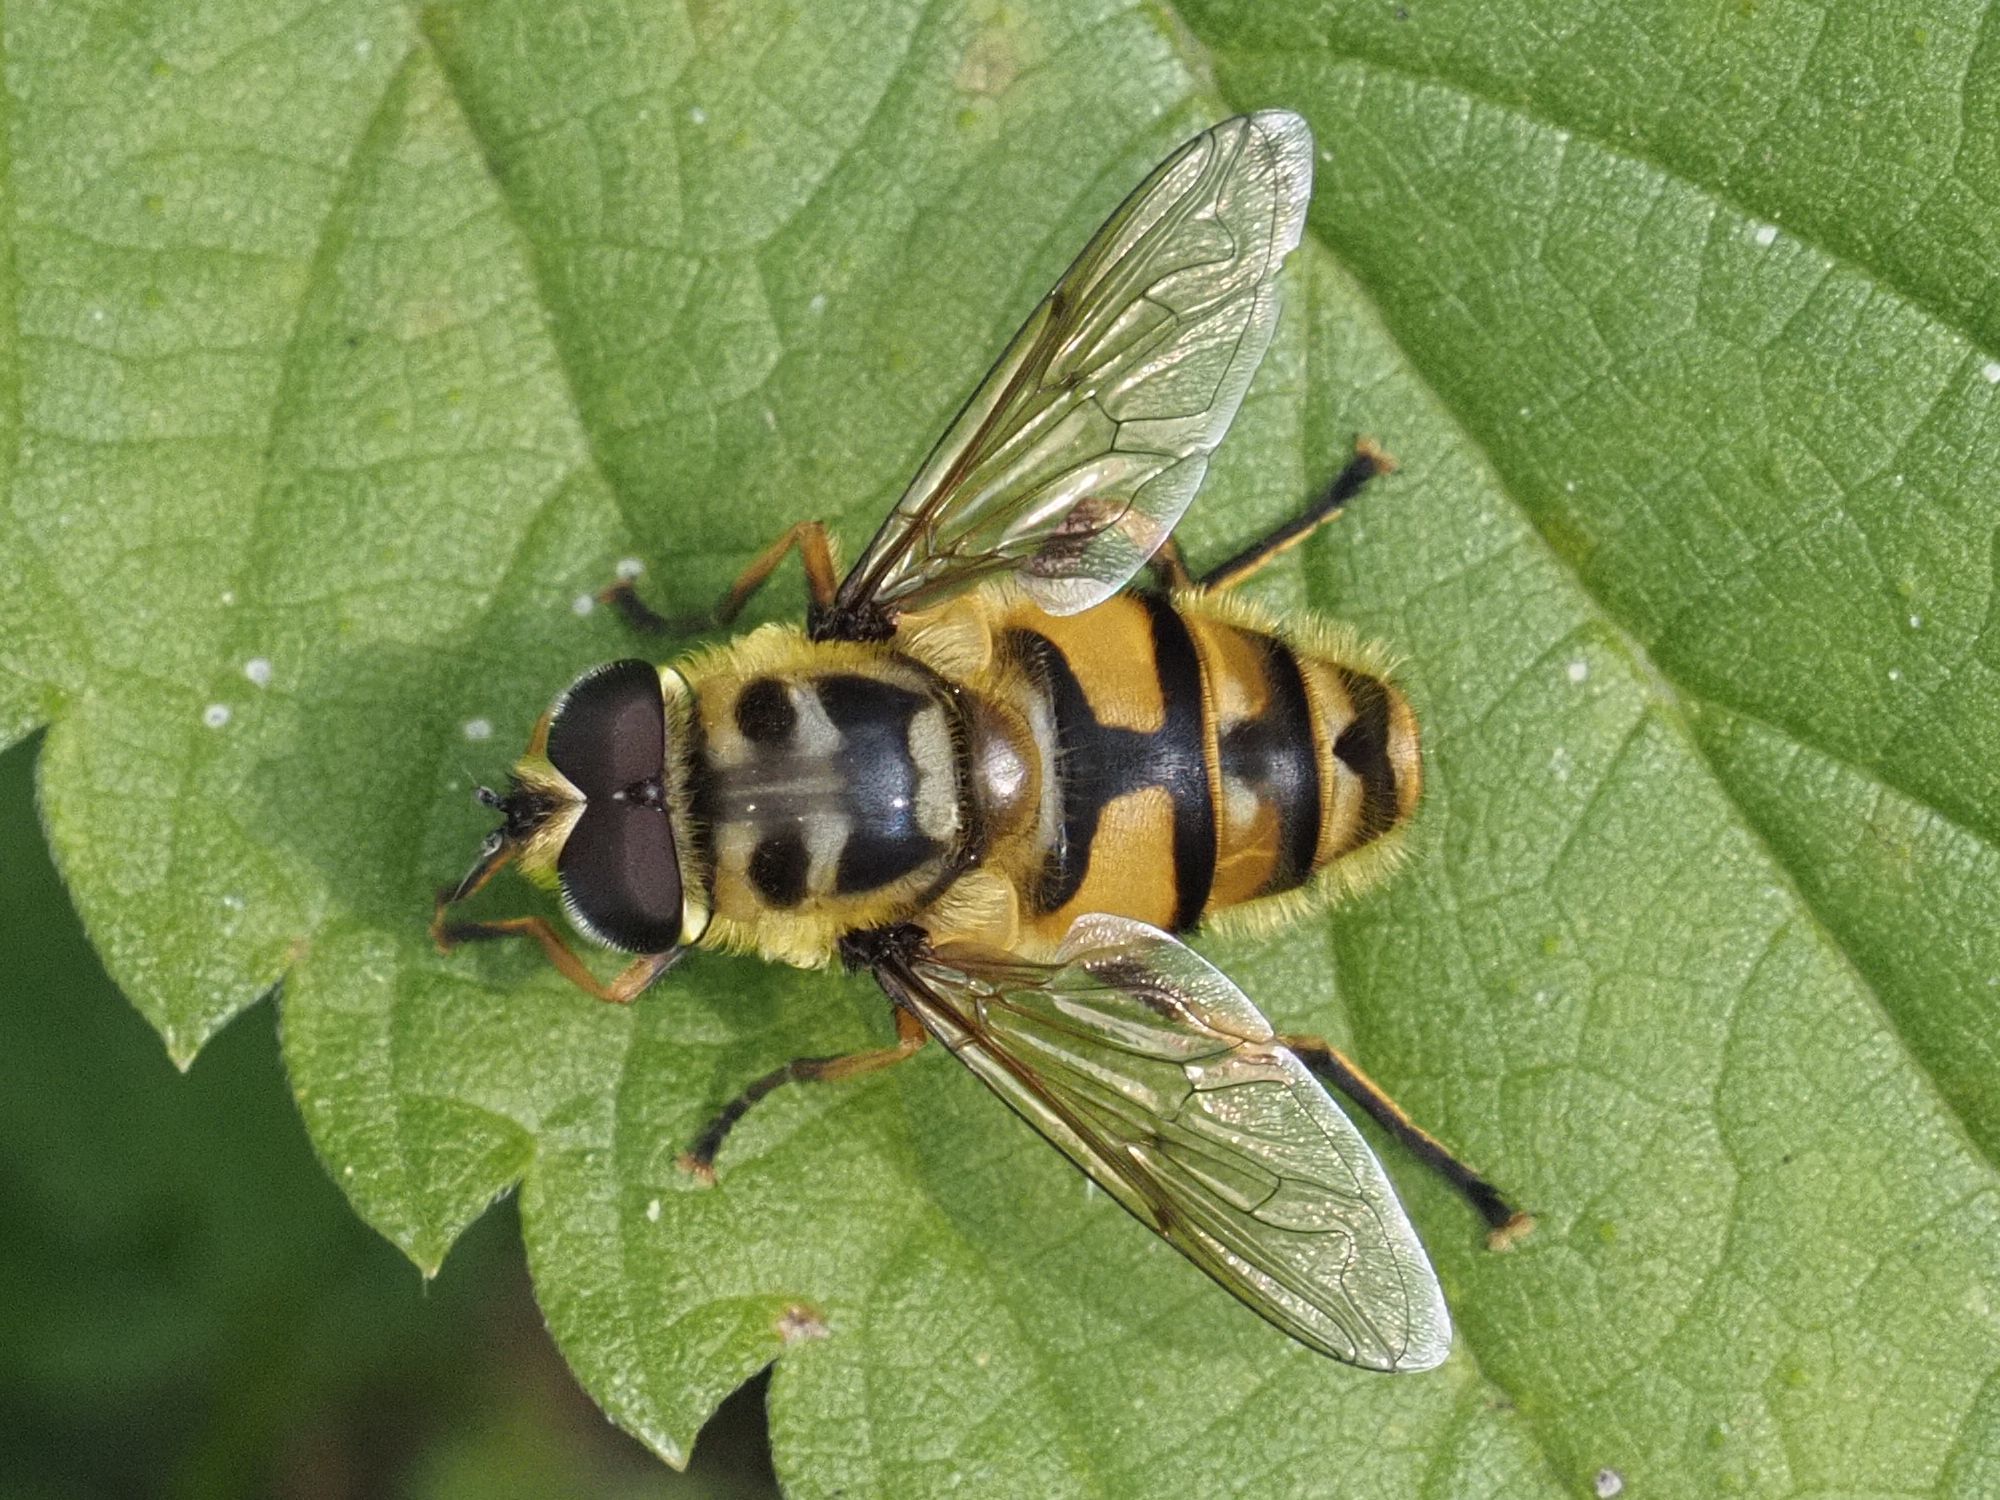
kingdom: Animalia
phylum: Arthropoda
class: Insecta
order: Diptera
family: Syrphidae
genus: Myathropa
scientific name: Myathropa florea
